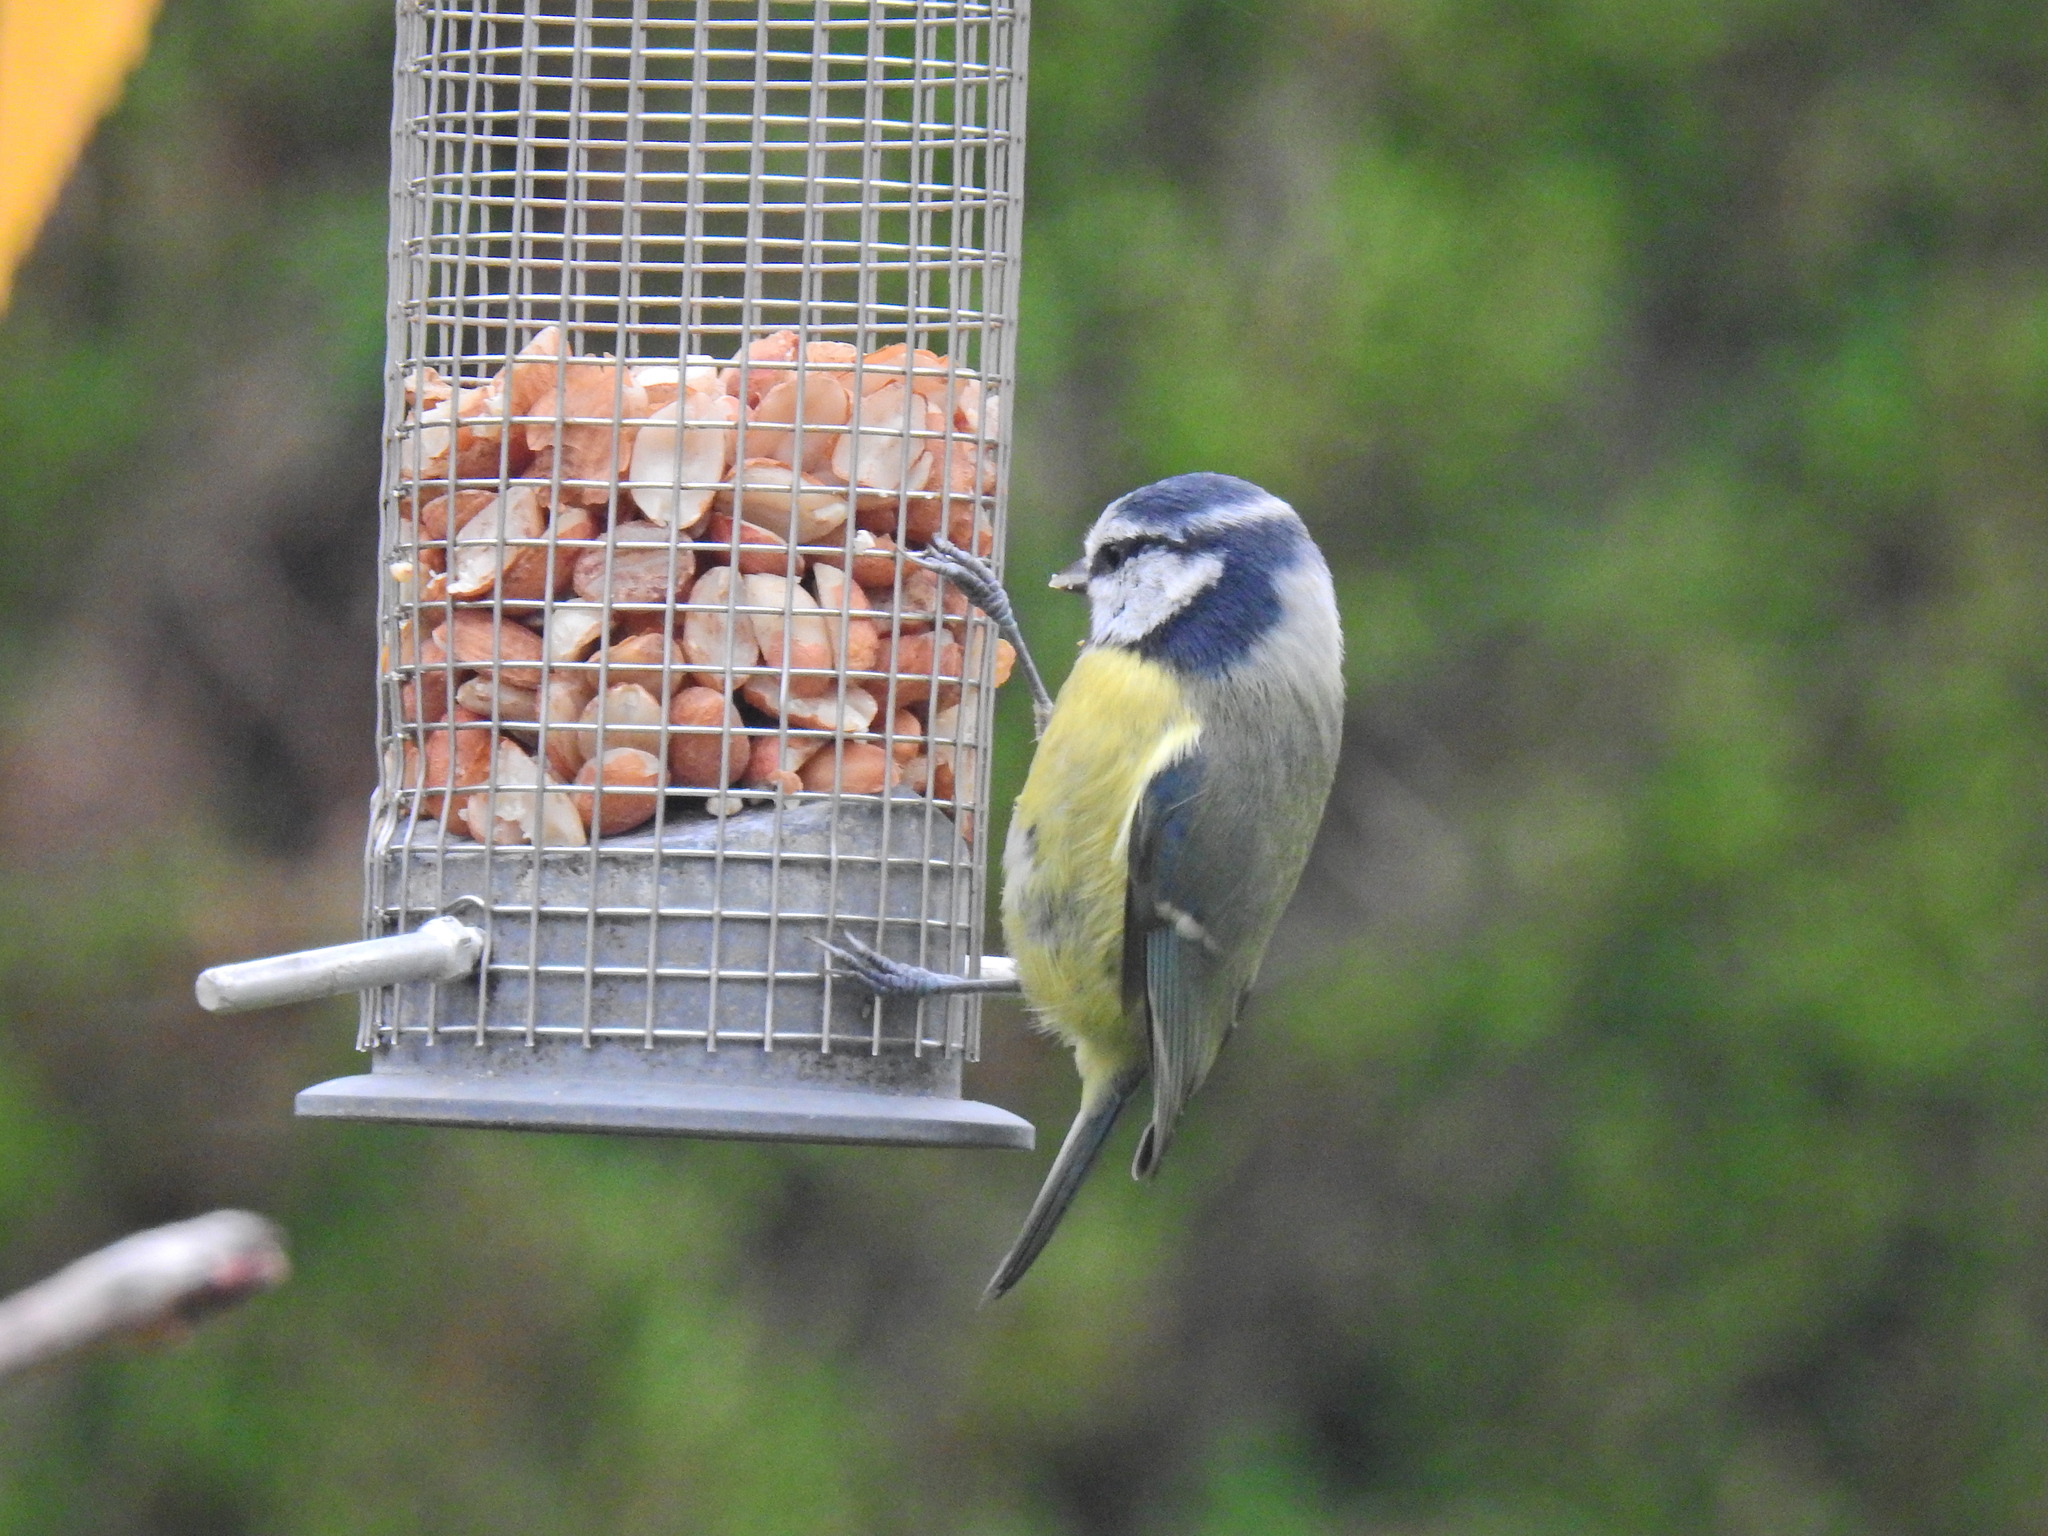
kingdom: Animalia
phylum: Chordata
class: Aves
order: Passeriformes
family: Paridae
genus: Cyanistes
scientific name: Cyanistes caeruleus
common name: Eurasian blue tit
